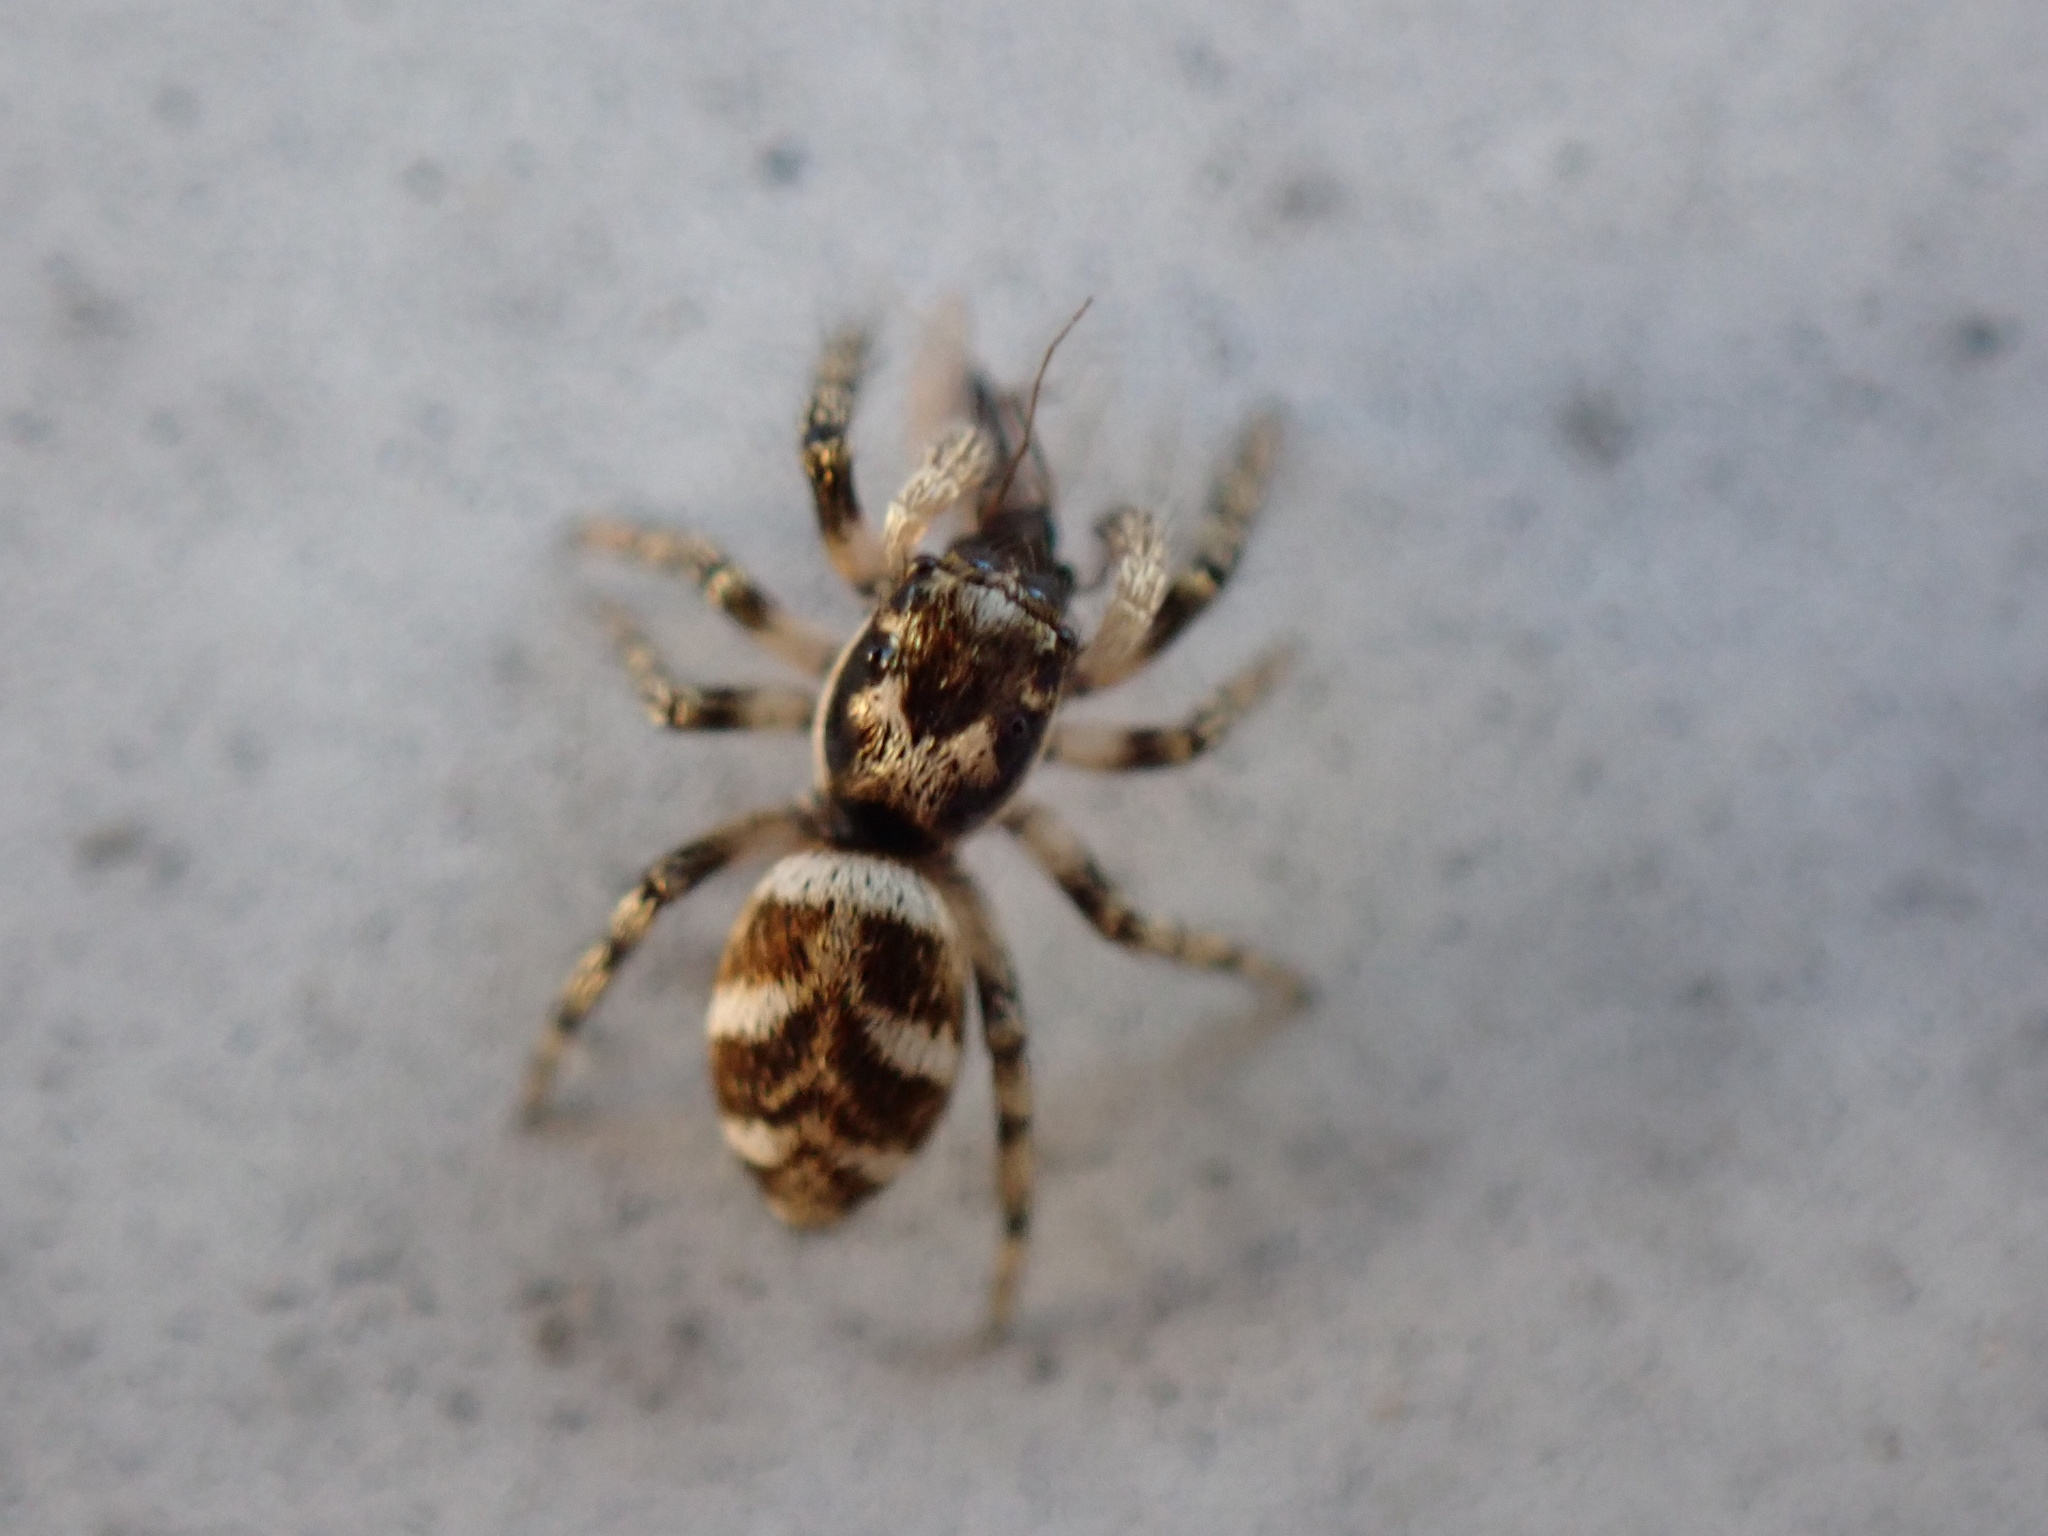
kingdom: Animalia
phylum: Arthropoda
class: Arachnida
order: Araneae
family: Salticidae
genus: Salticus
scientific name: Salticus scenicus
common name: Zebra jumper
